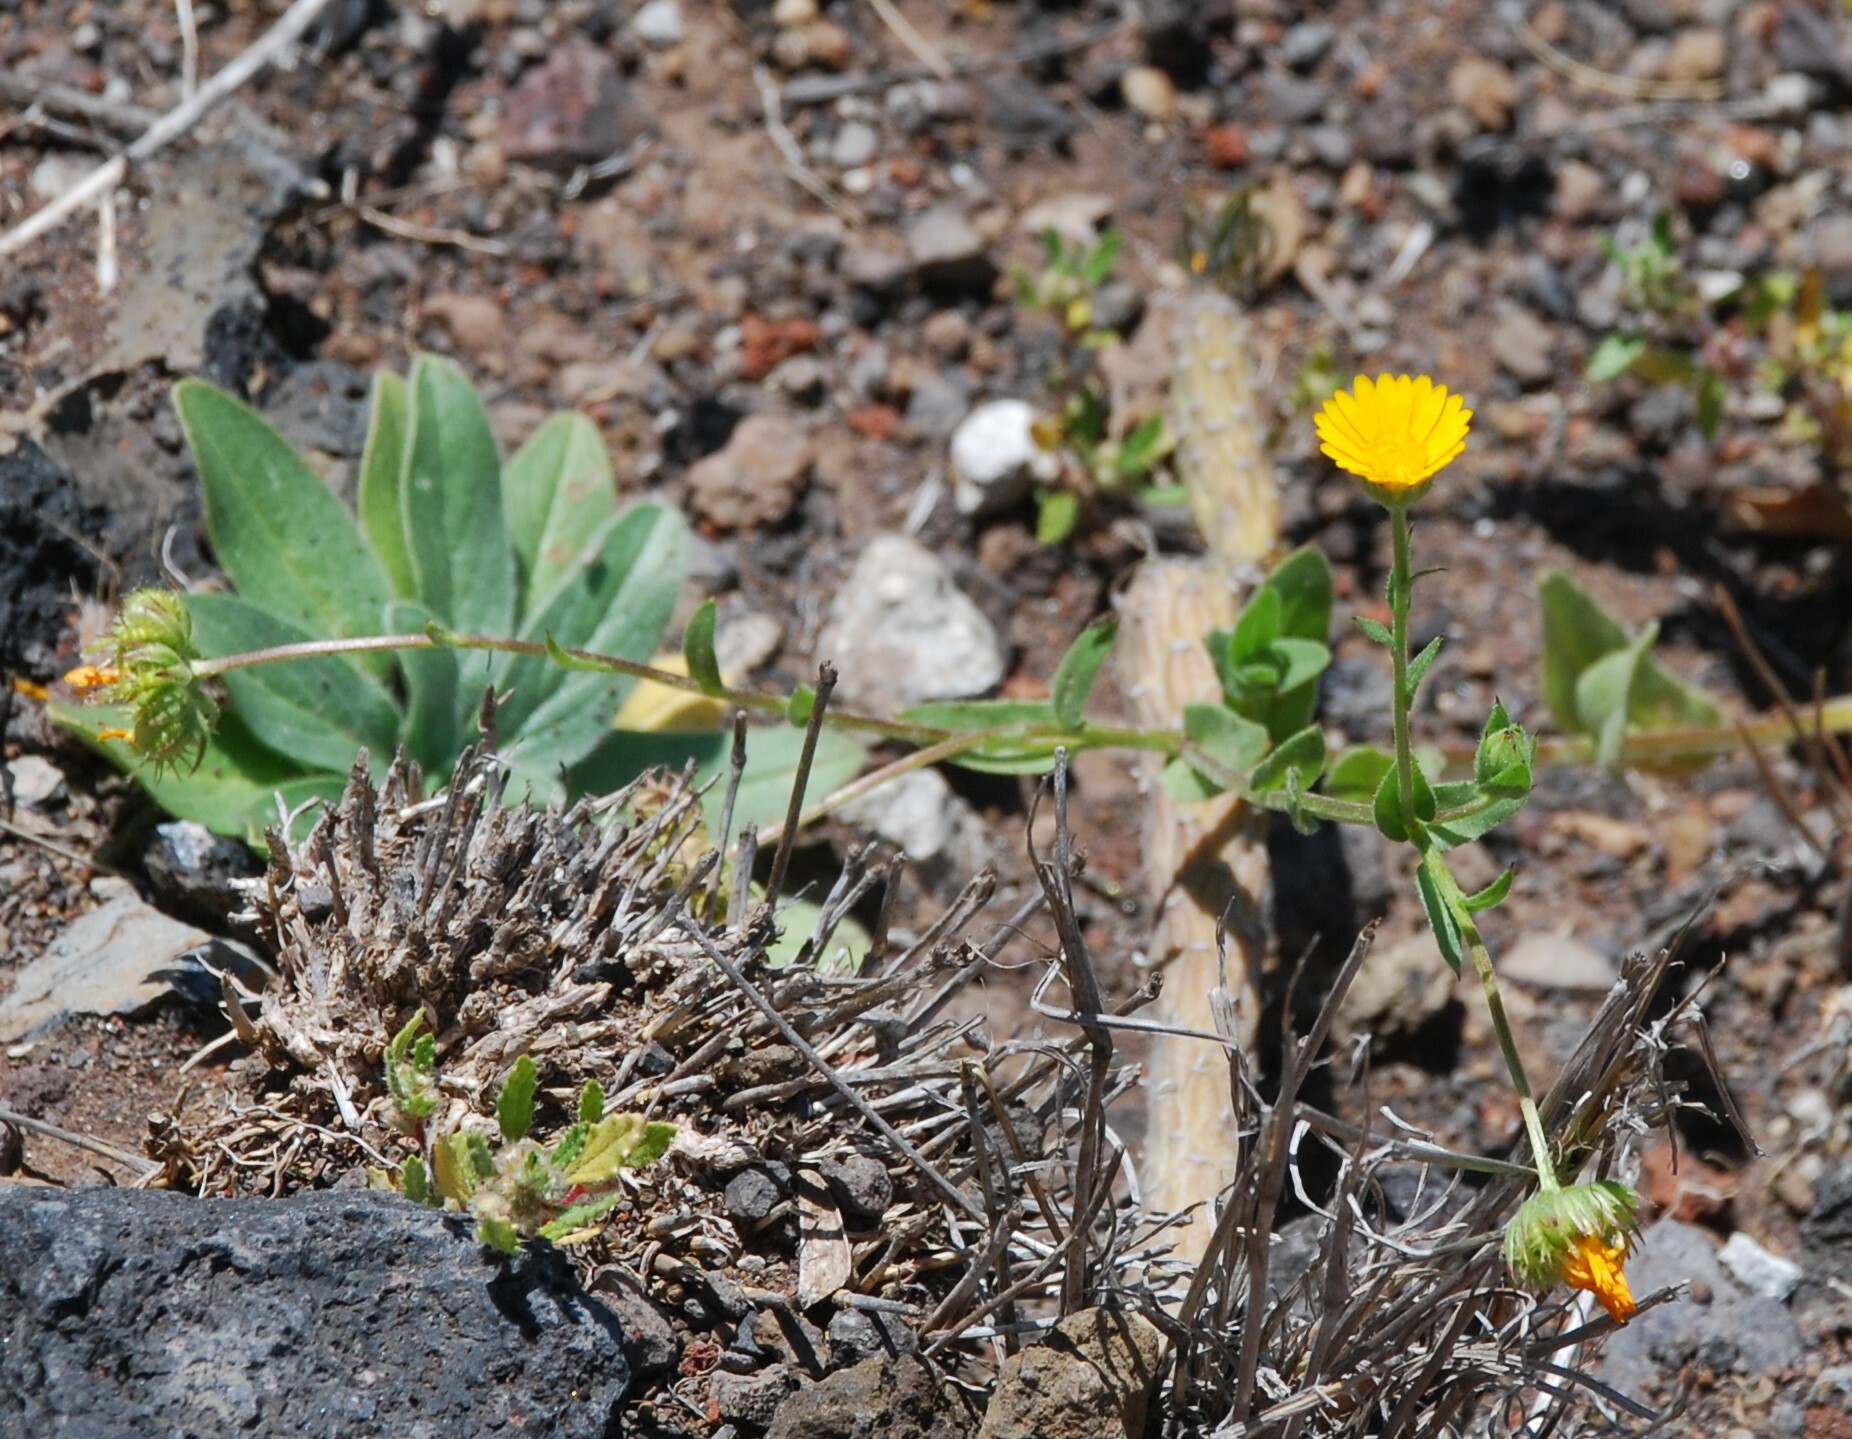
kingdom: Plantae
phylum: Tracheophyta
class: Magnoliopsida
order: Asterales
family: Asteraceae
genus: Calendula
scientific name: Calendula arvensis
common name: Field marigold
